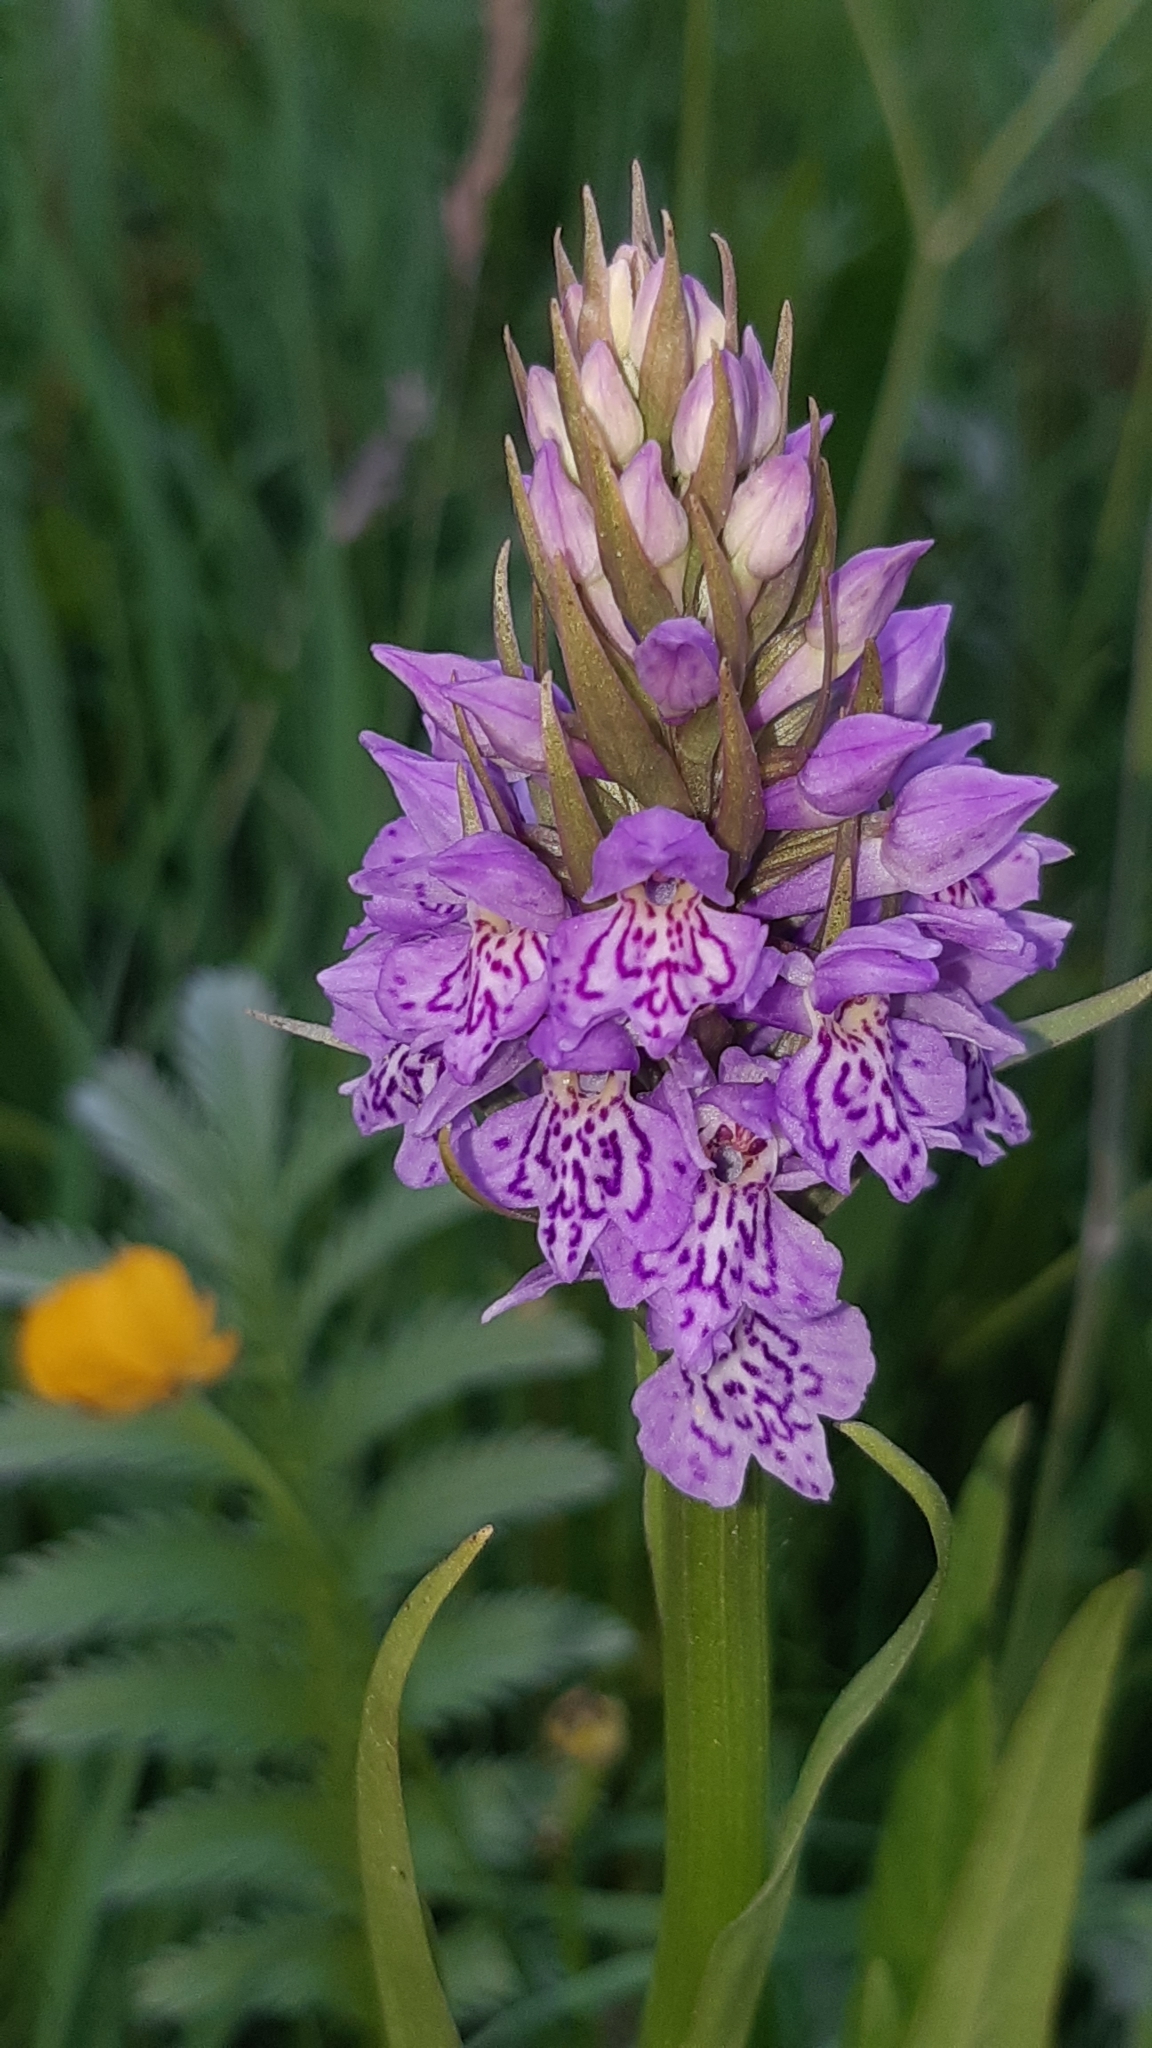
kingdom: Plantae
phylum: Tracheophyta
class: Liliopsida
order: Asparagales
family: Orchidaceae
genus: Dactylorhiza
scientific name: Dactylorhiza maculata
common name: Heath spotted-orchid
